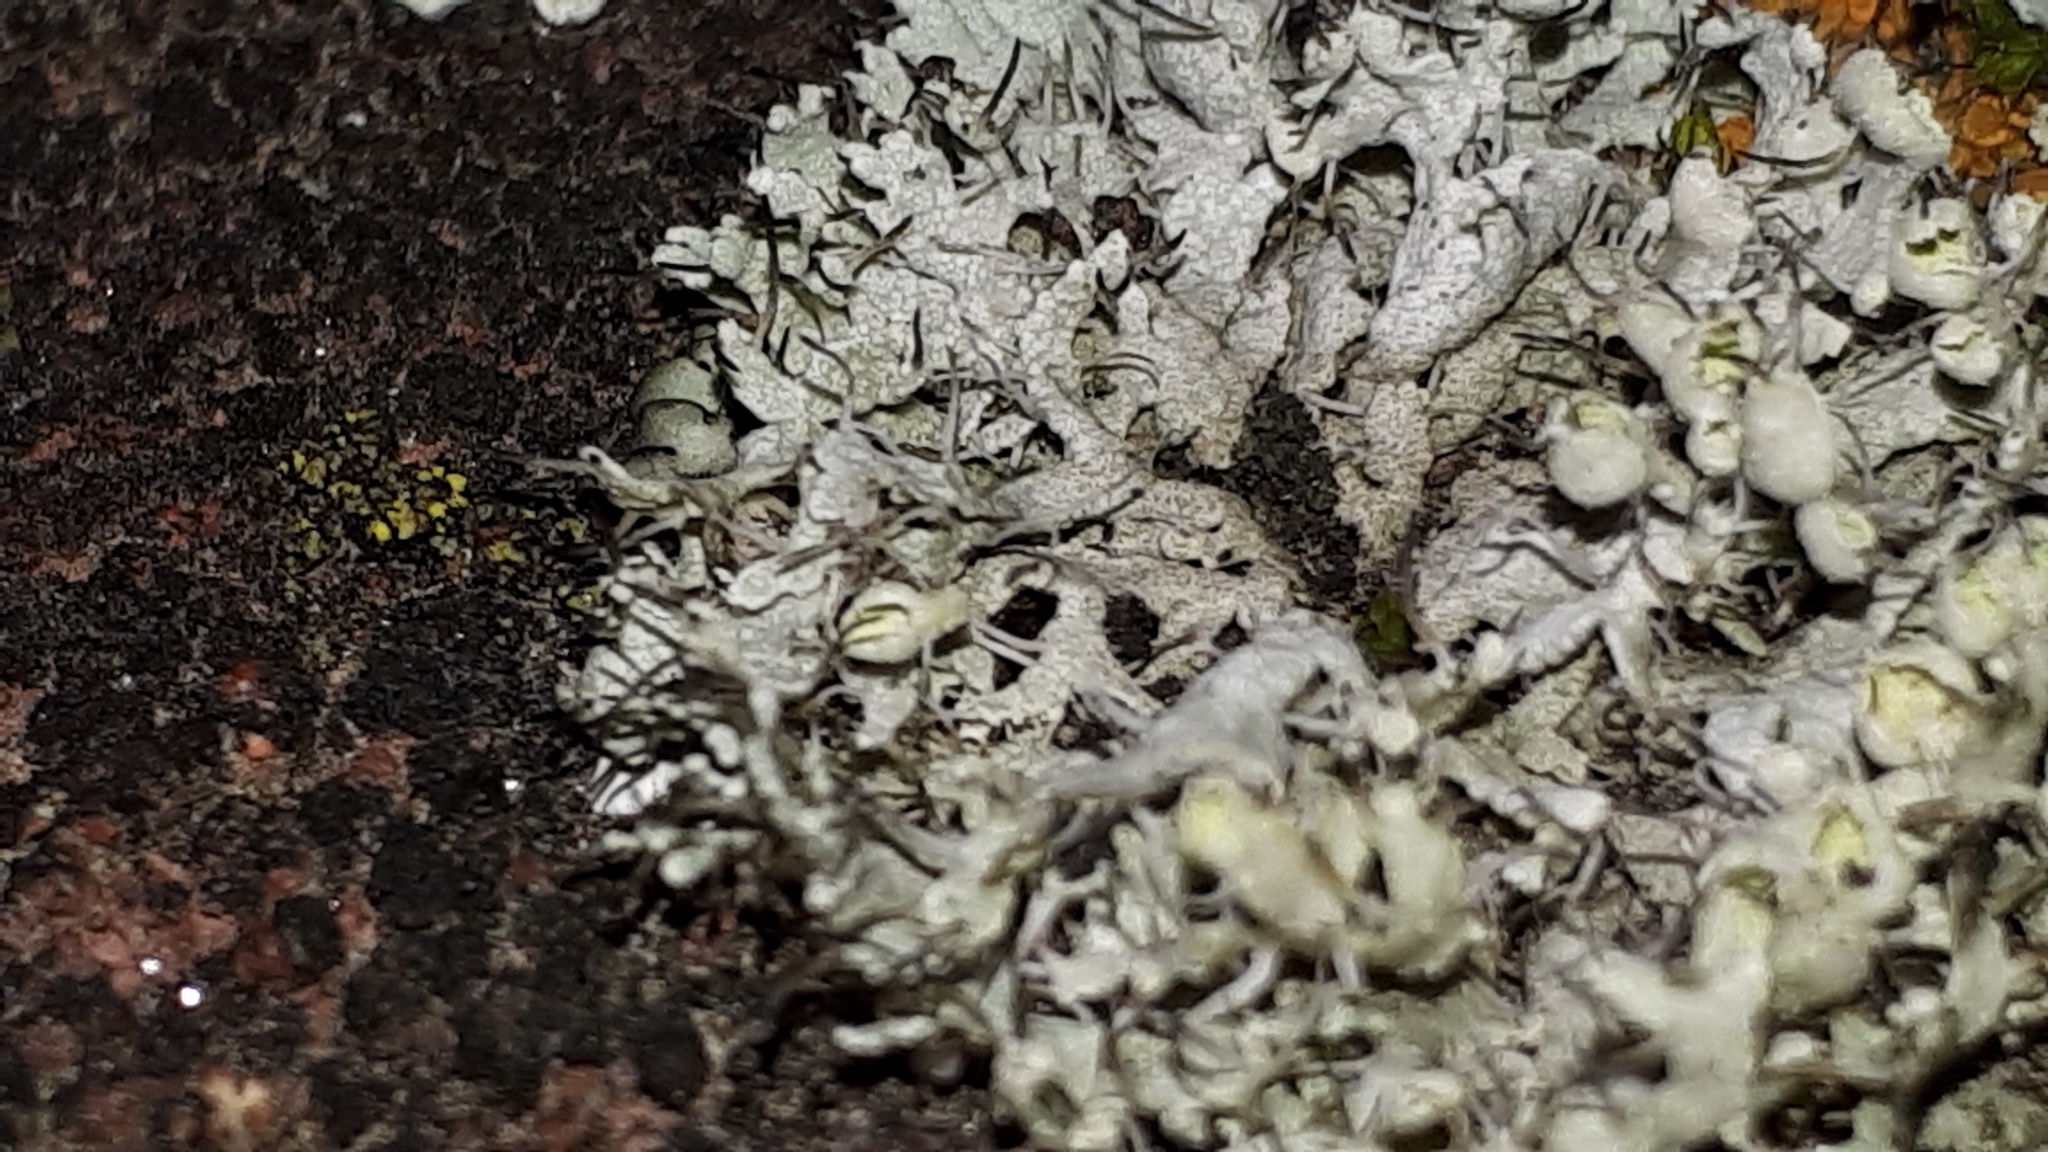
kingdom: Fungi
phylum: Ascomycota
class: Lecanoromycetes
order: Caliciales
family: Physciaceae
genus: Physcia
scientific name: Physcia adscendens
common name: Hooded rosette lichen
